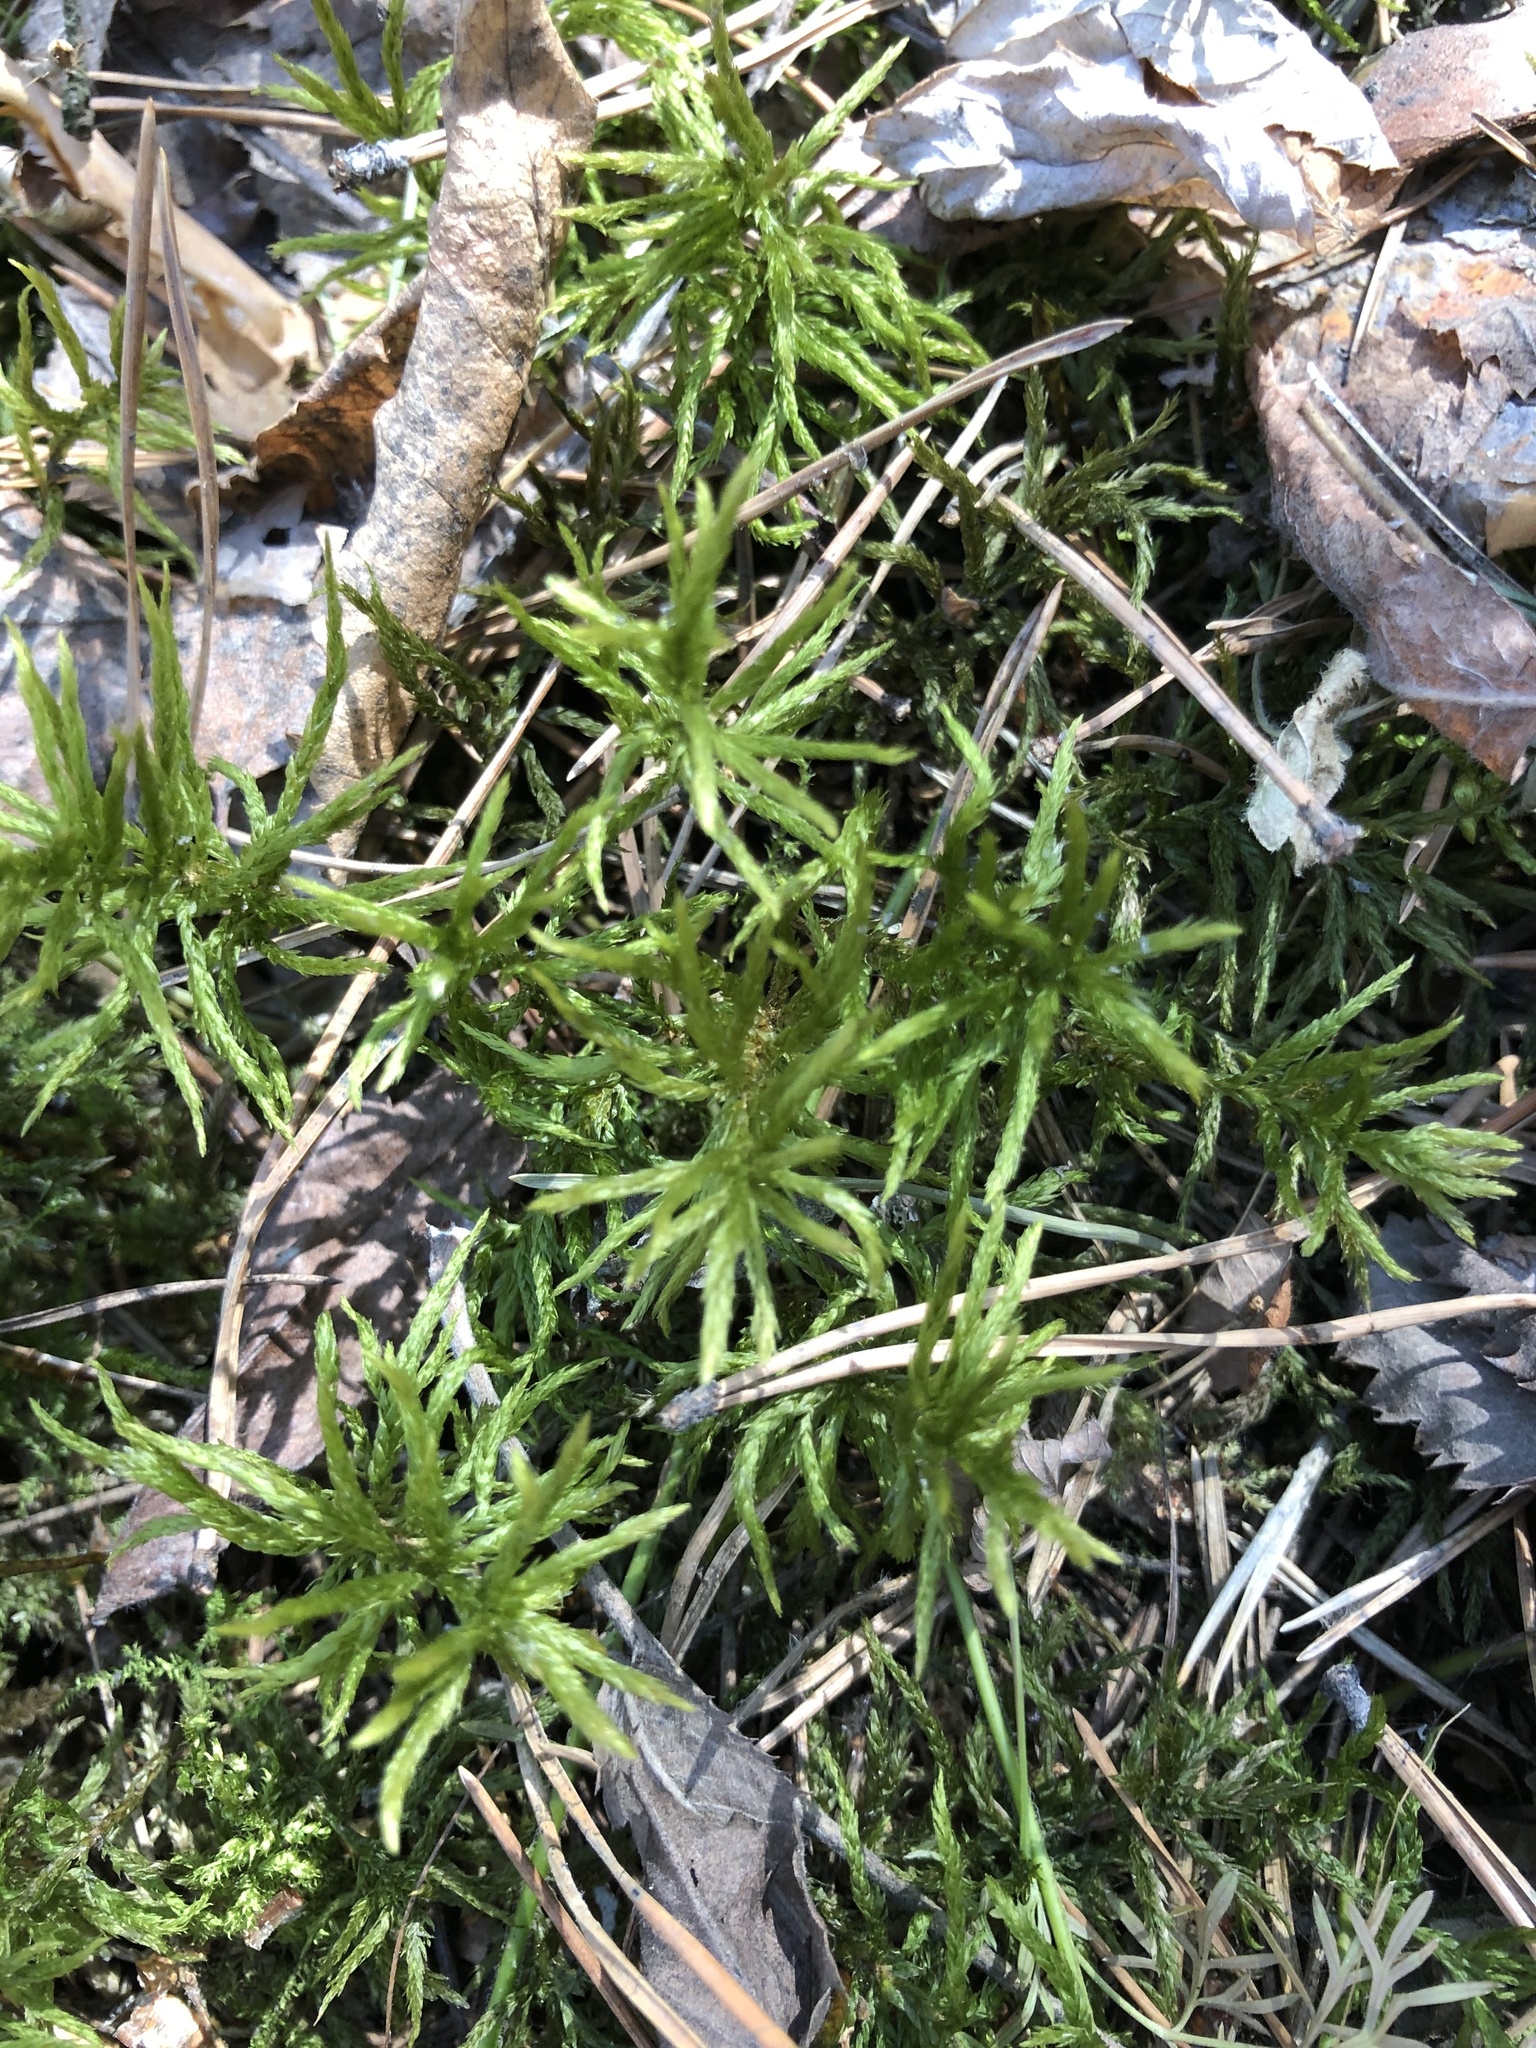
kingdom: Plantae
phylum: Bryophyta
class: Bryopsida
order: Hypnales
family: Climaciaceae
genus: Climacium
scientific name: Climacium dendroides
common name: Northern tree moss
